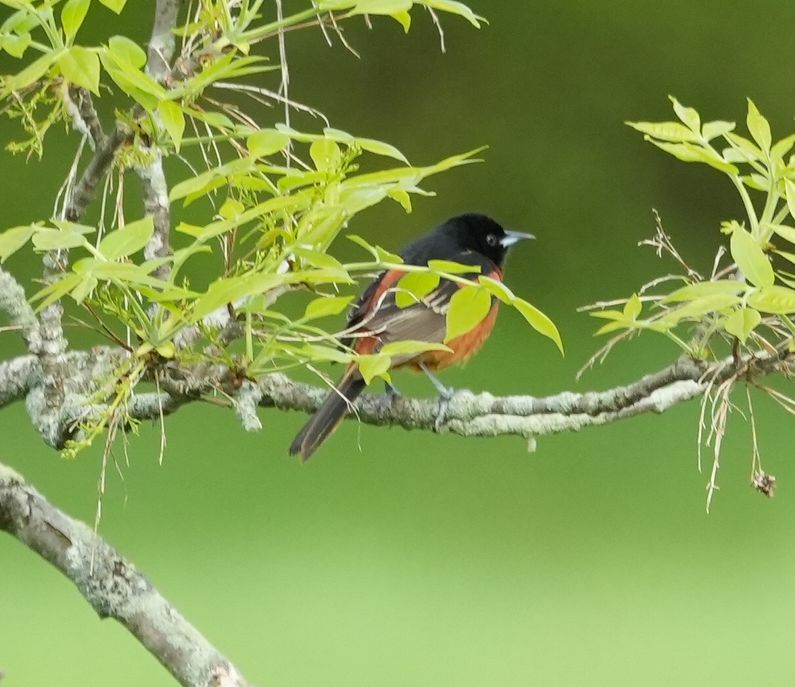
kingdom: Animalia
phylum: Chordata
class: Aves
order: Passeriformes
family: Icteridae
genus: Icterus
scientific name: Icterus spurius
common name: Orchard oriole
